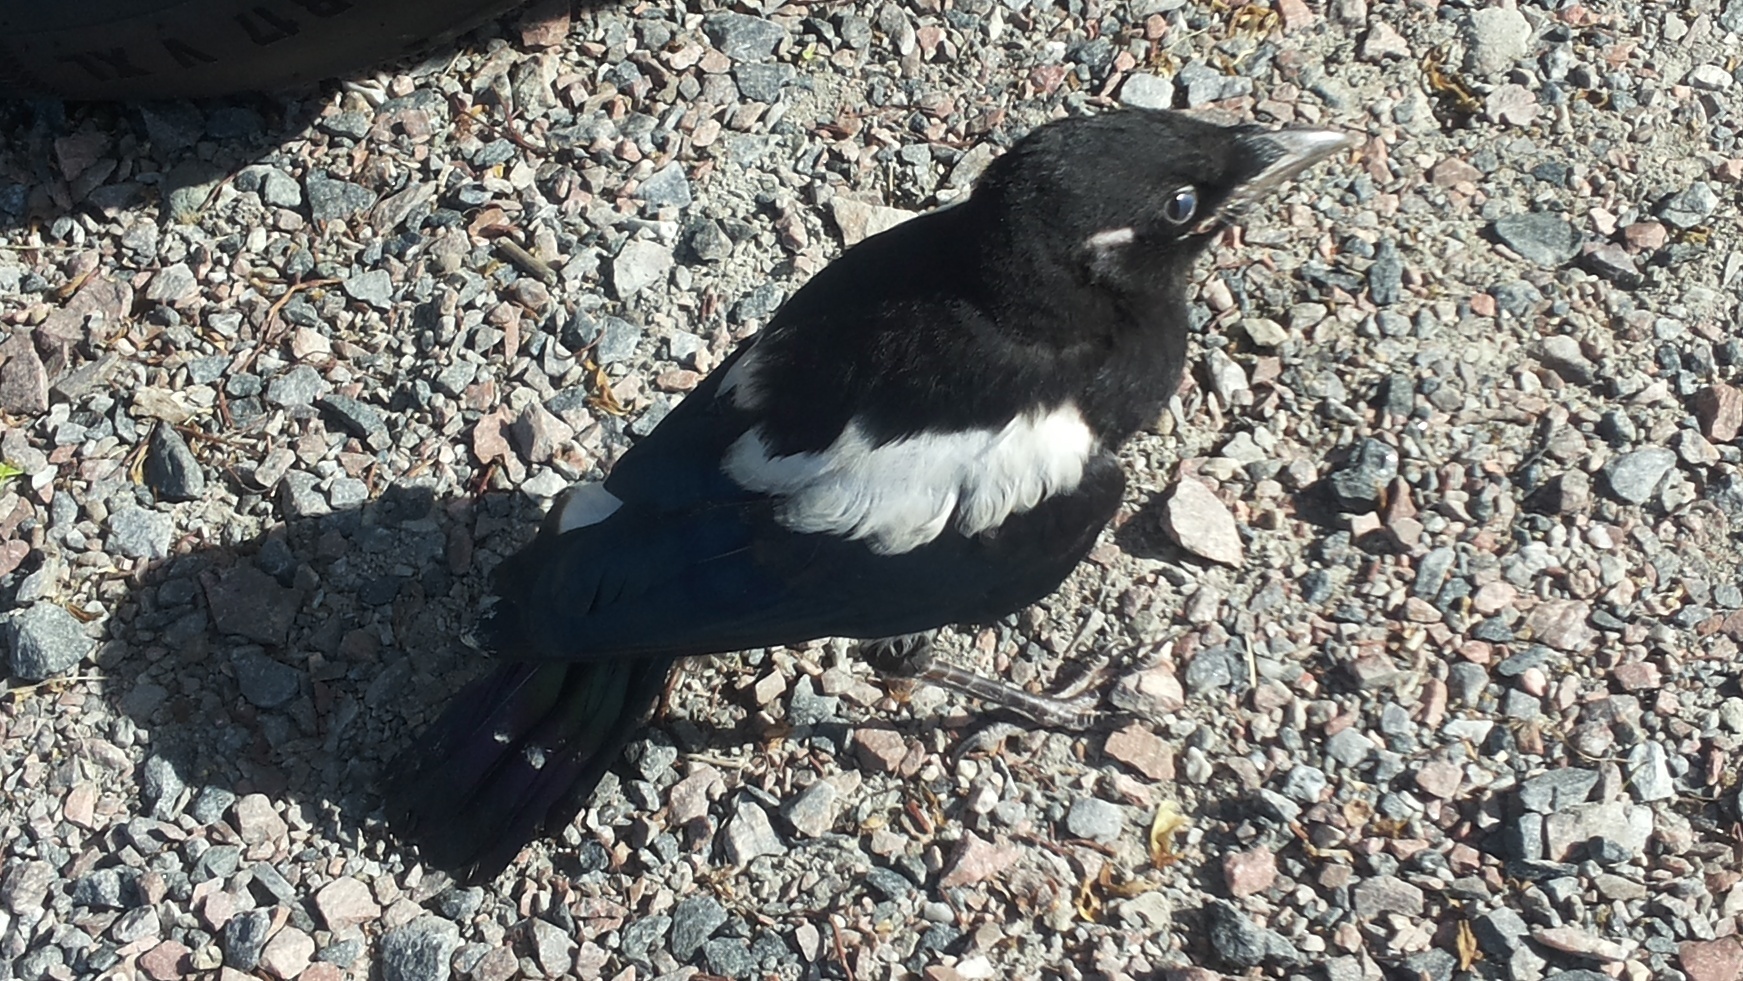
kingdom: Animalia
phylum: Chordata
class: Aves
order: Passeriformes
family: Corvidae
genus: Pica
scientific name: Pica pica
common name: Eurasian magpie
